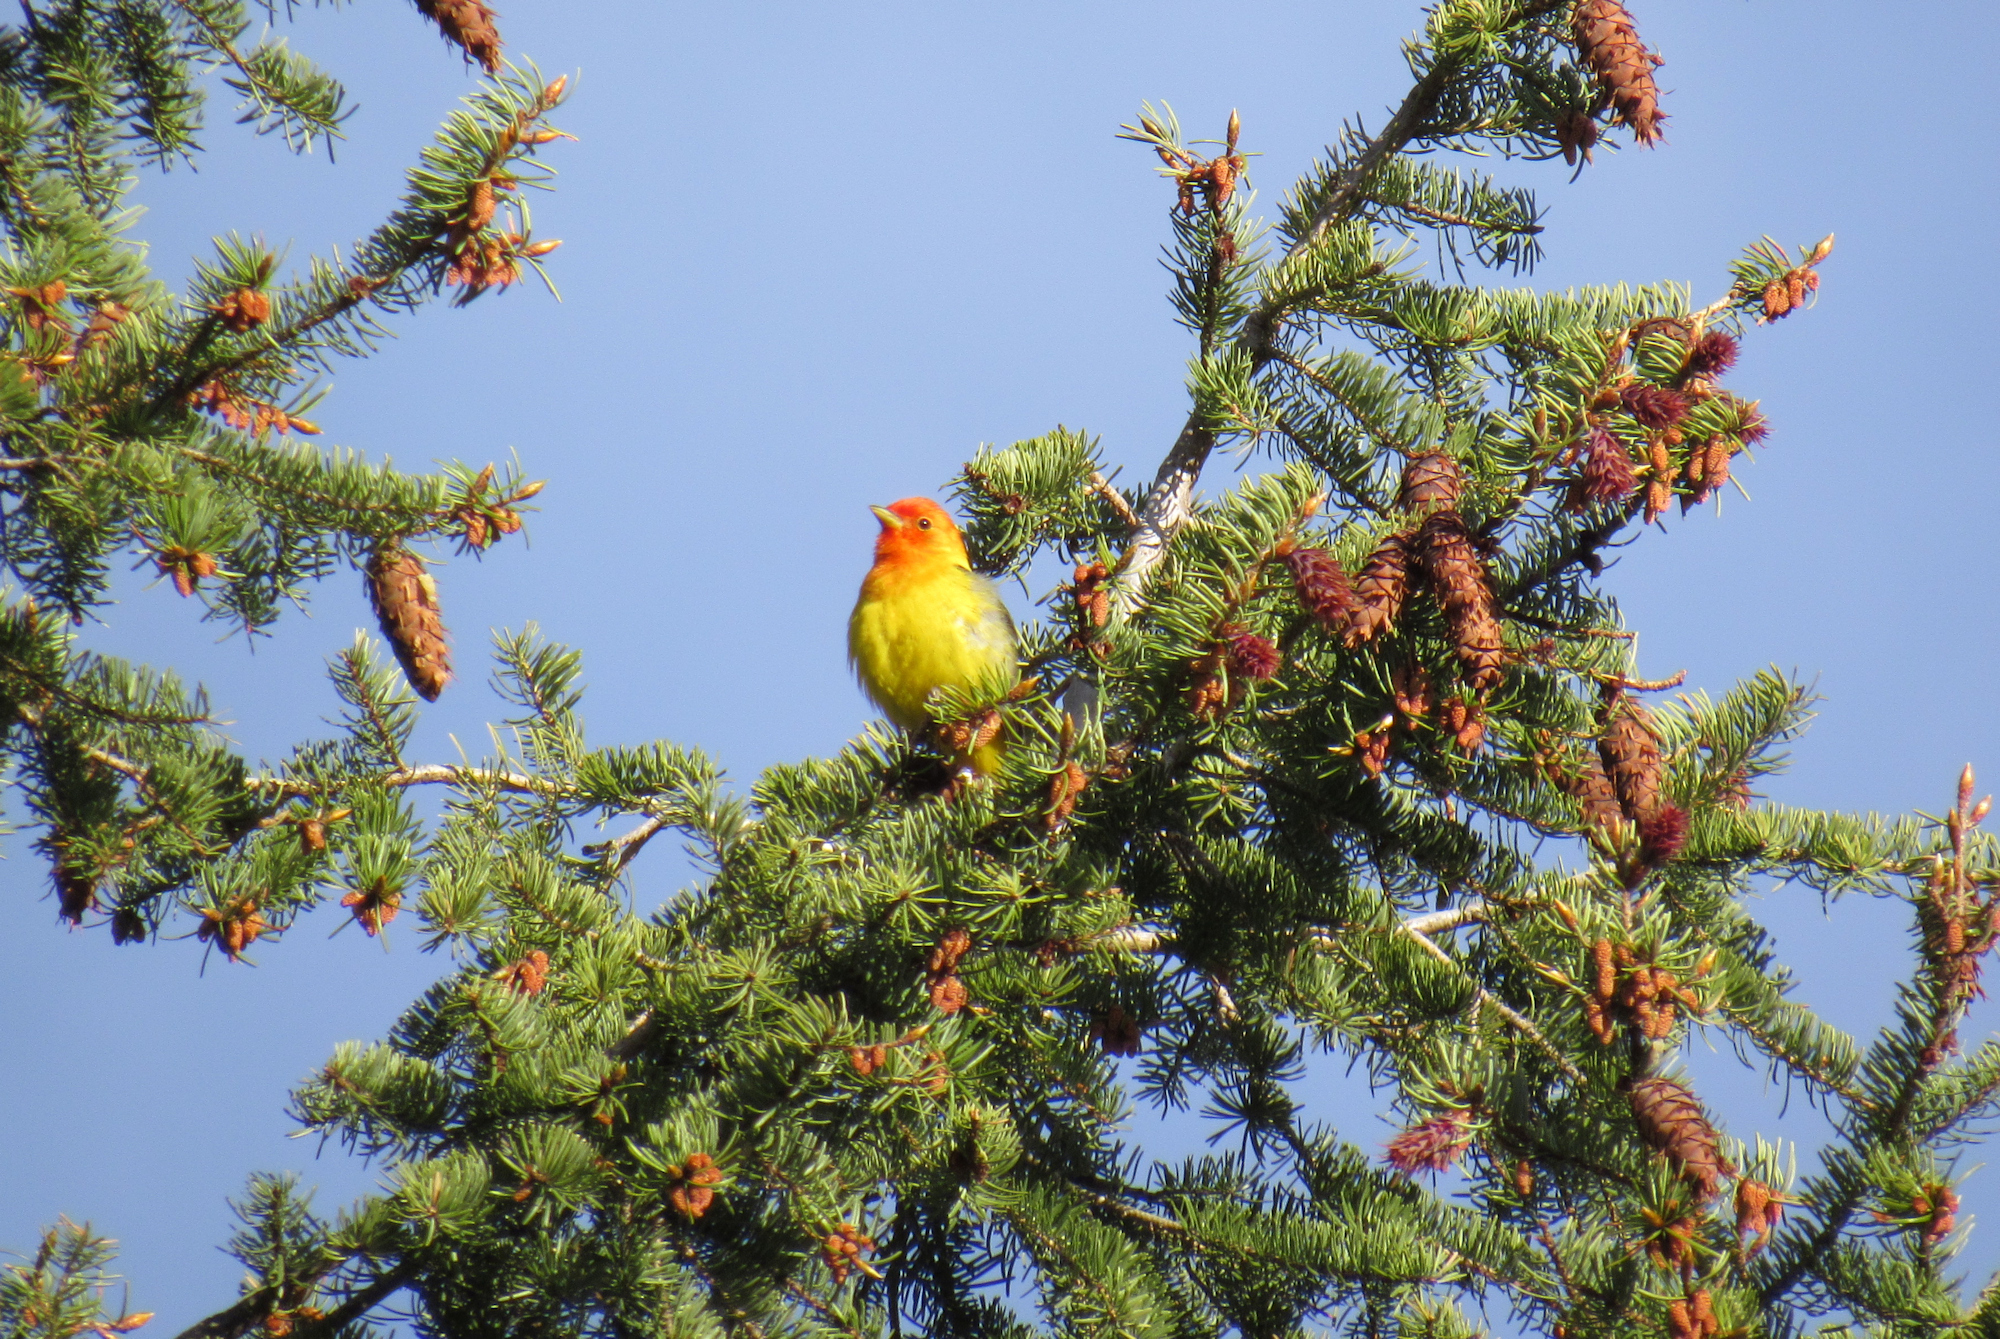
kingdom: Animalia
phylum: Chordata
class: Aves
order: Passeriformes
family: Cardinalidae
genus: Piranga
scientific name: Piranga ludoviciana
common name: Western tanager
